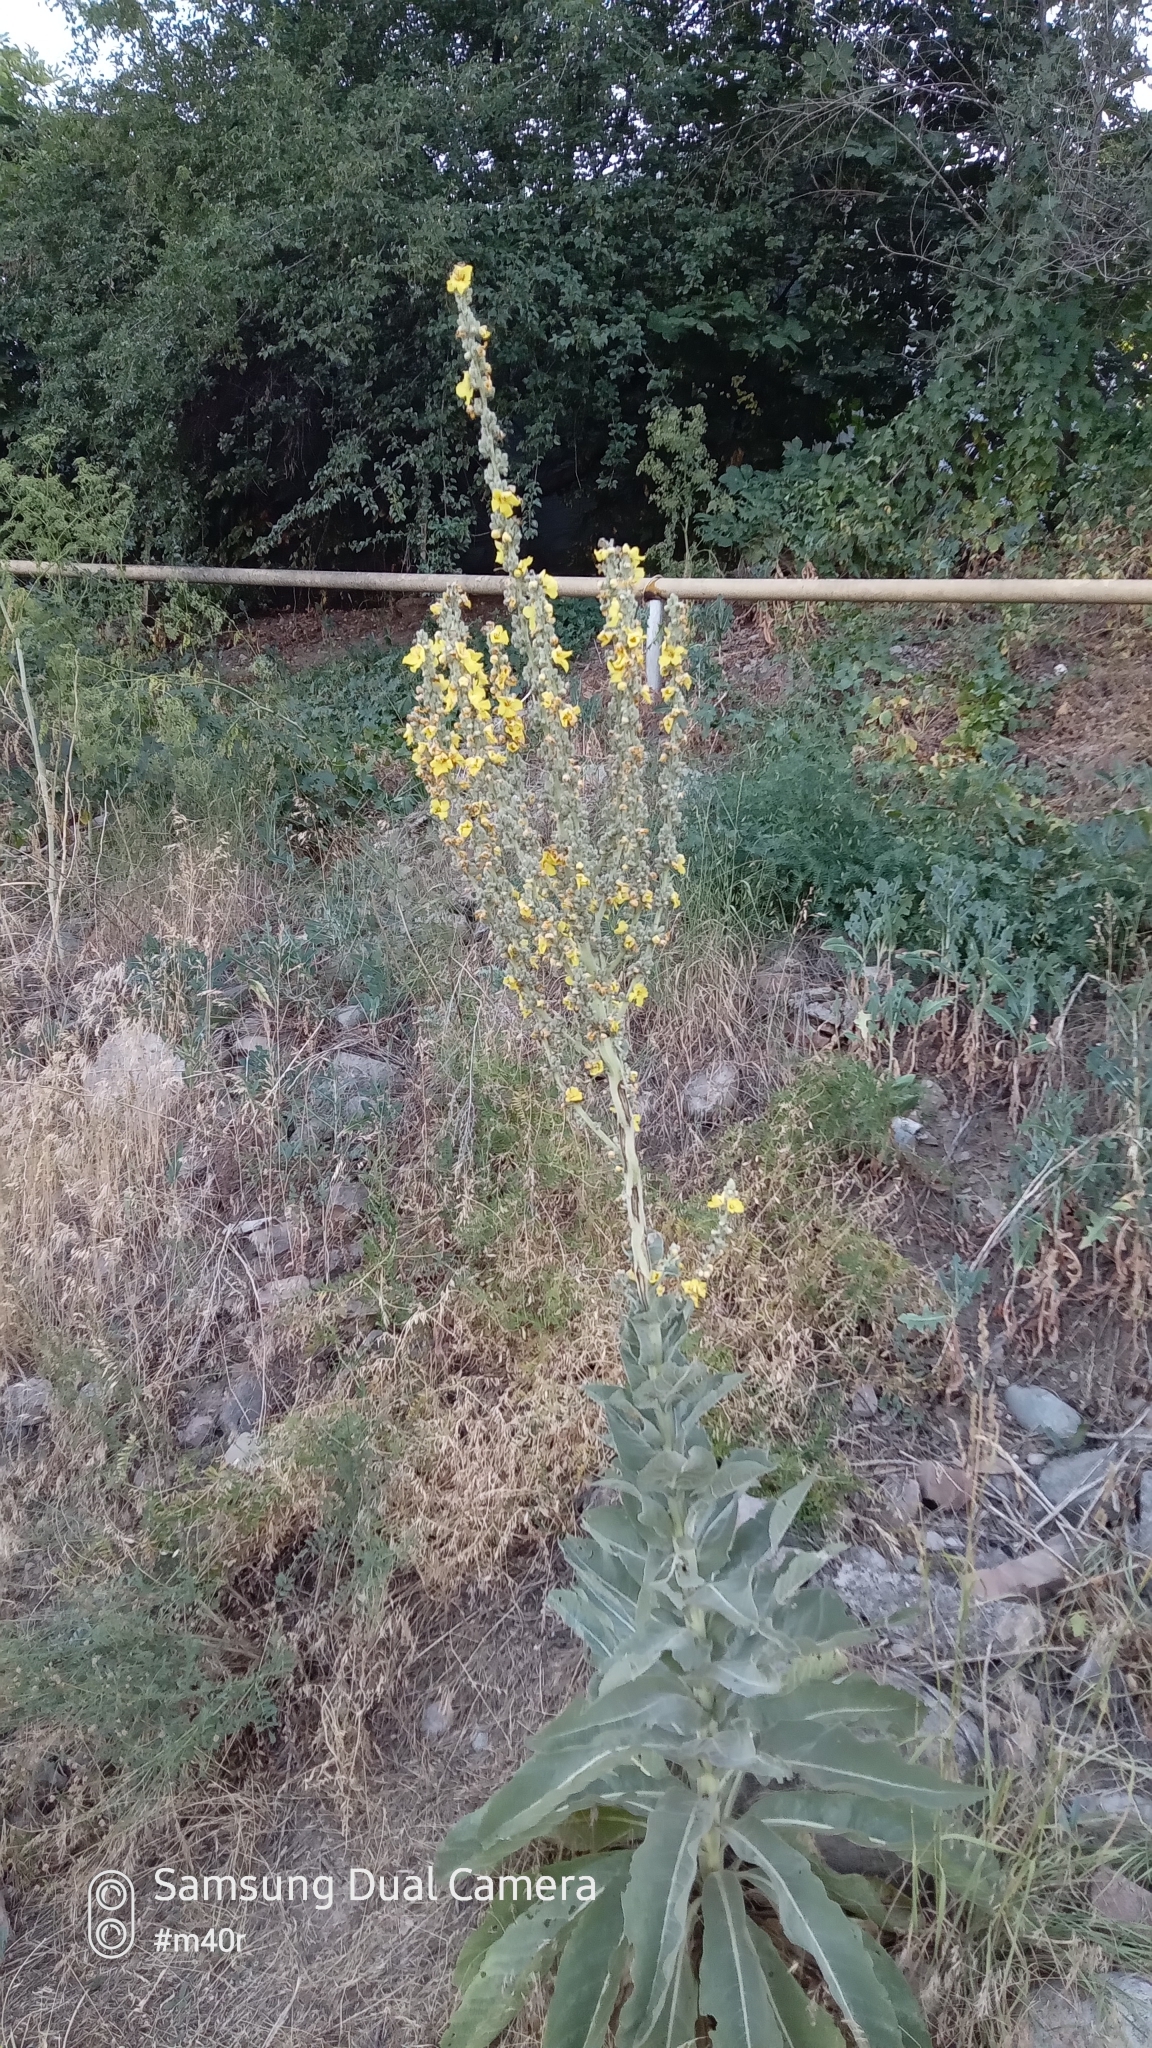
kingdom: Plantae
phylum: Tracheophyta
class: Magnoliopsida
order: Lamiales
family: Scrophulariaceae
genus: Verbascum
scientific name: Verbascum songaricum
